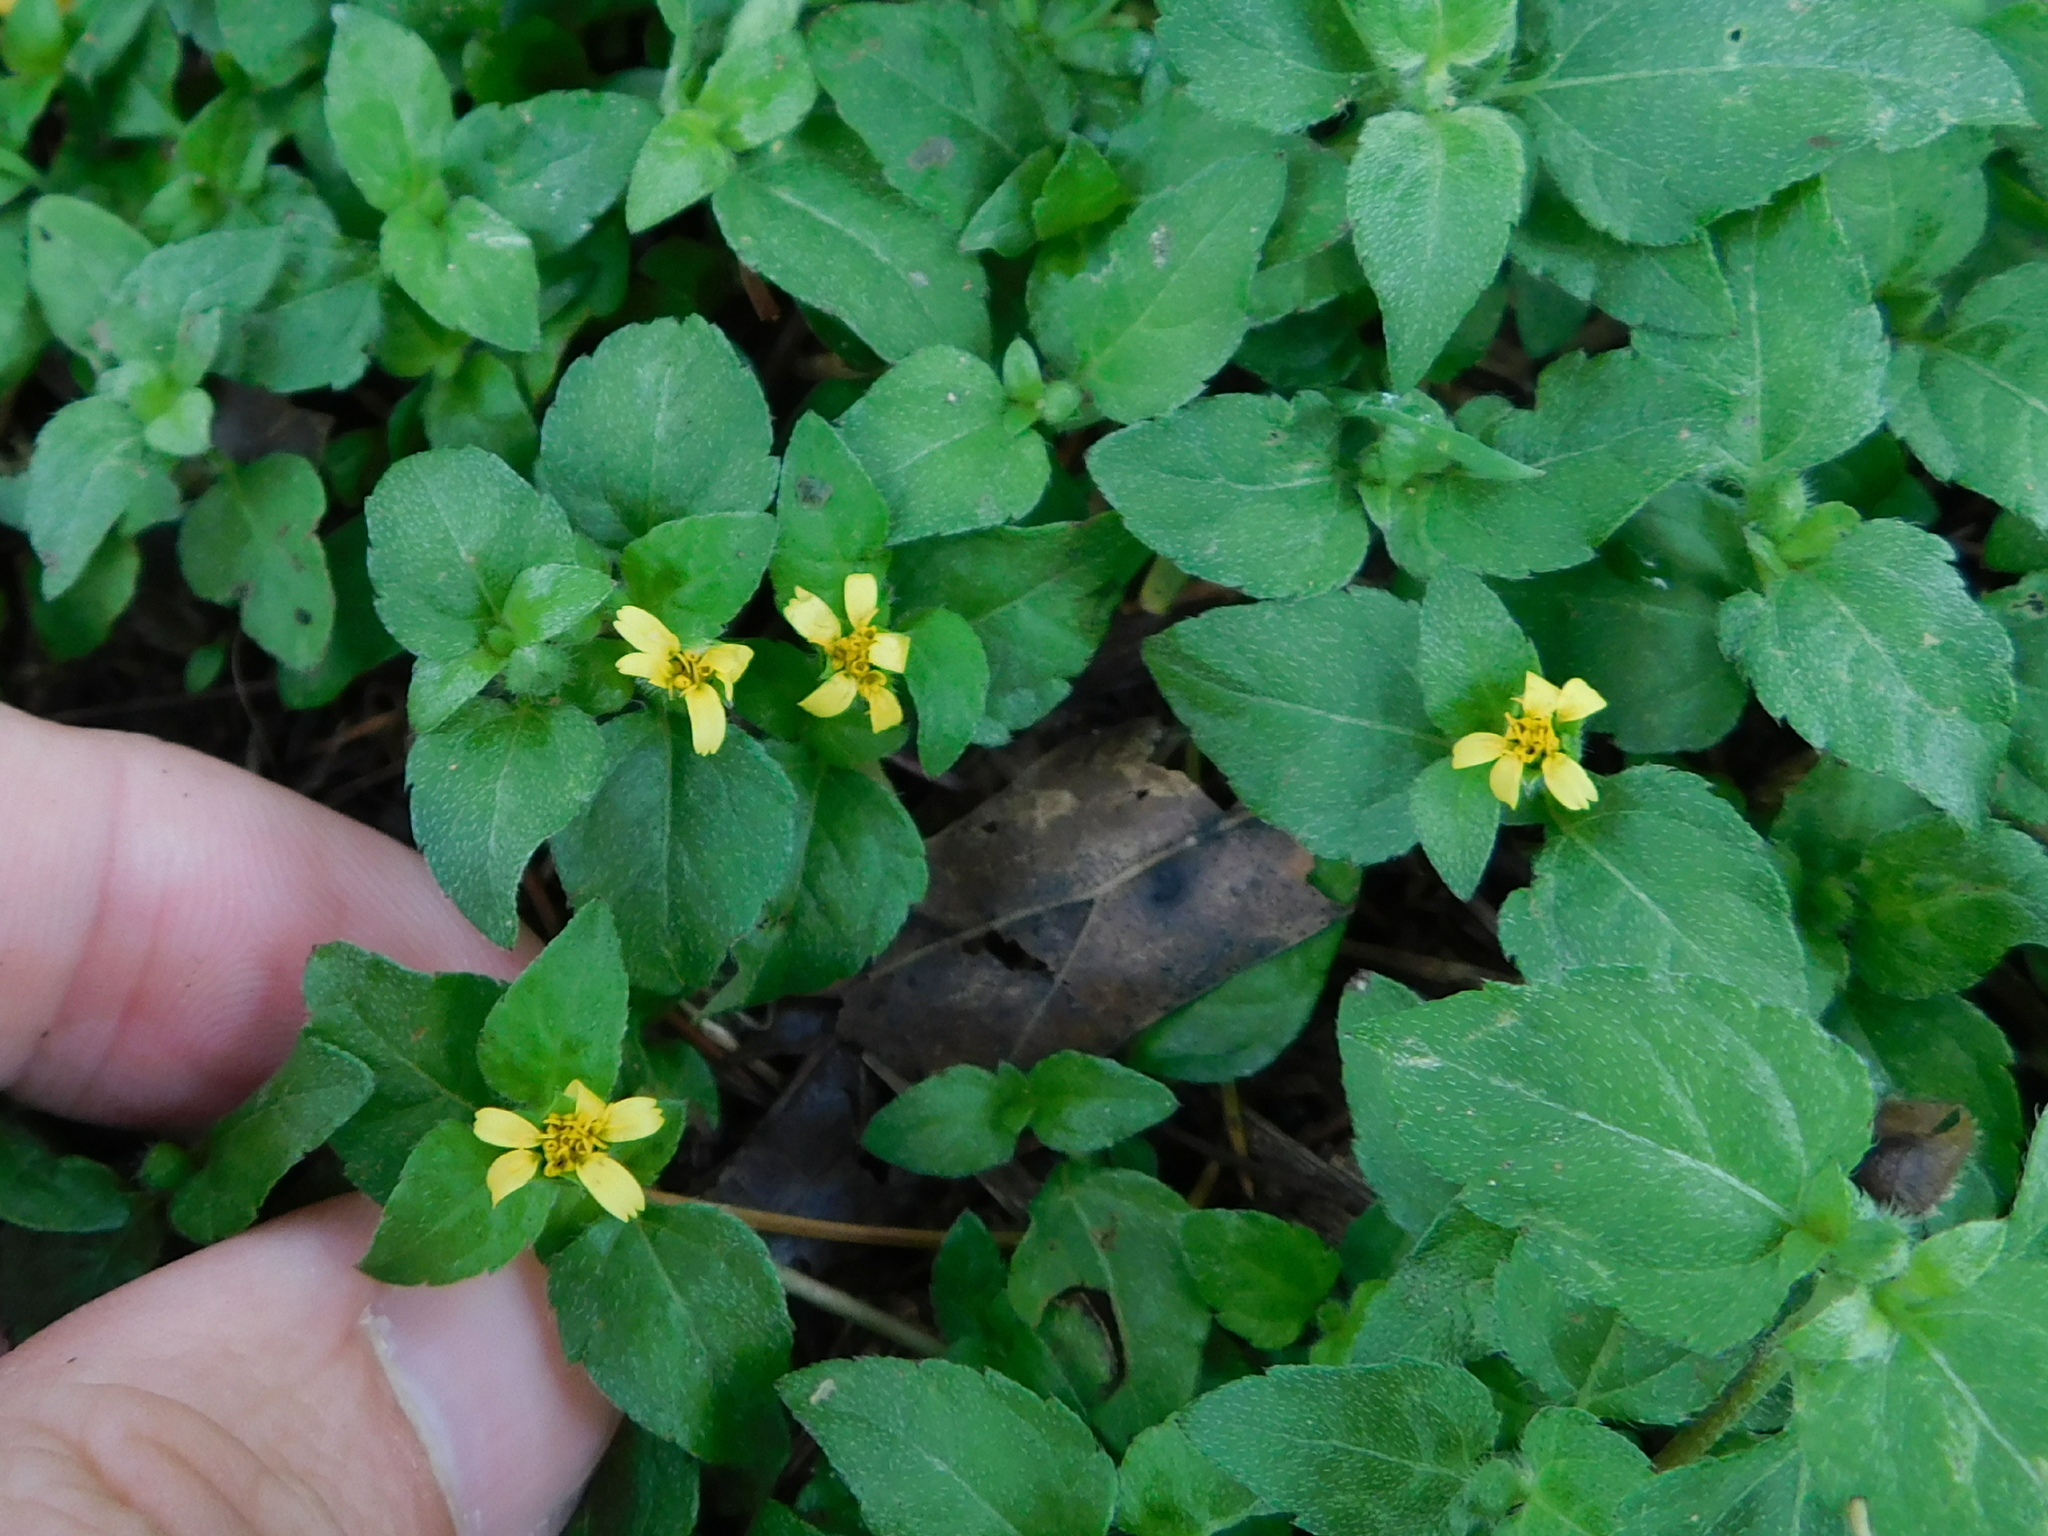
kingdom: Plantae
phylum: Tracheophyta
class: Magnoliopsida
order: Asterales
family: Asteraceae
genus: Calyptocarpus
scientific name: Calyptocarpus vialis
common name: Straggler daisy
